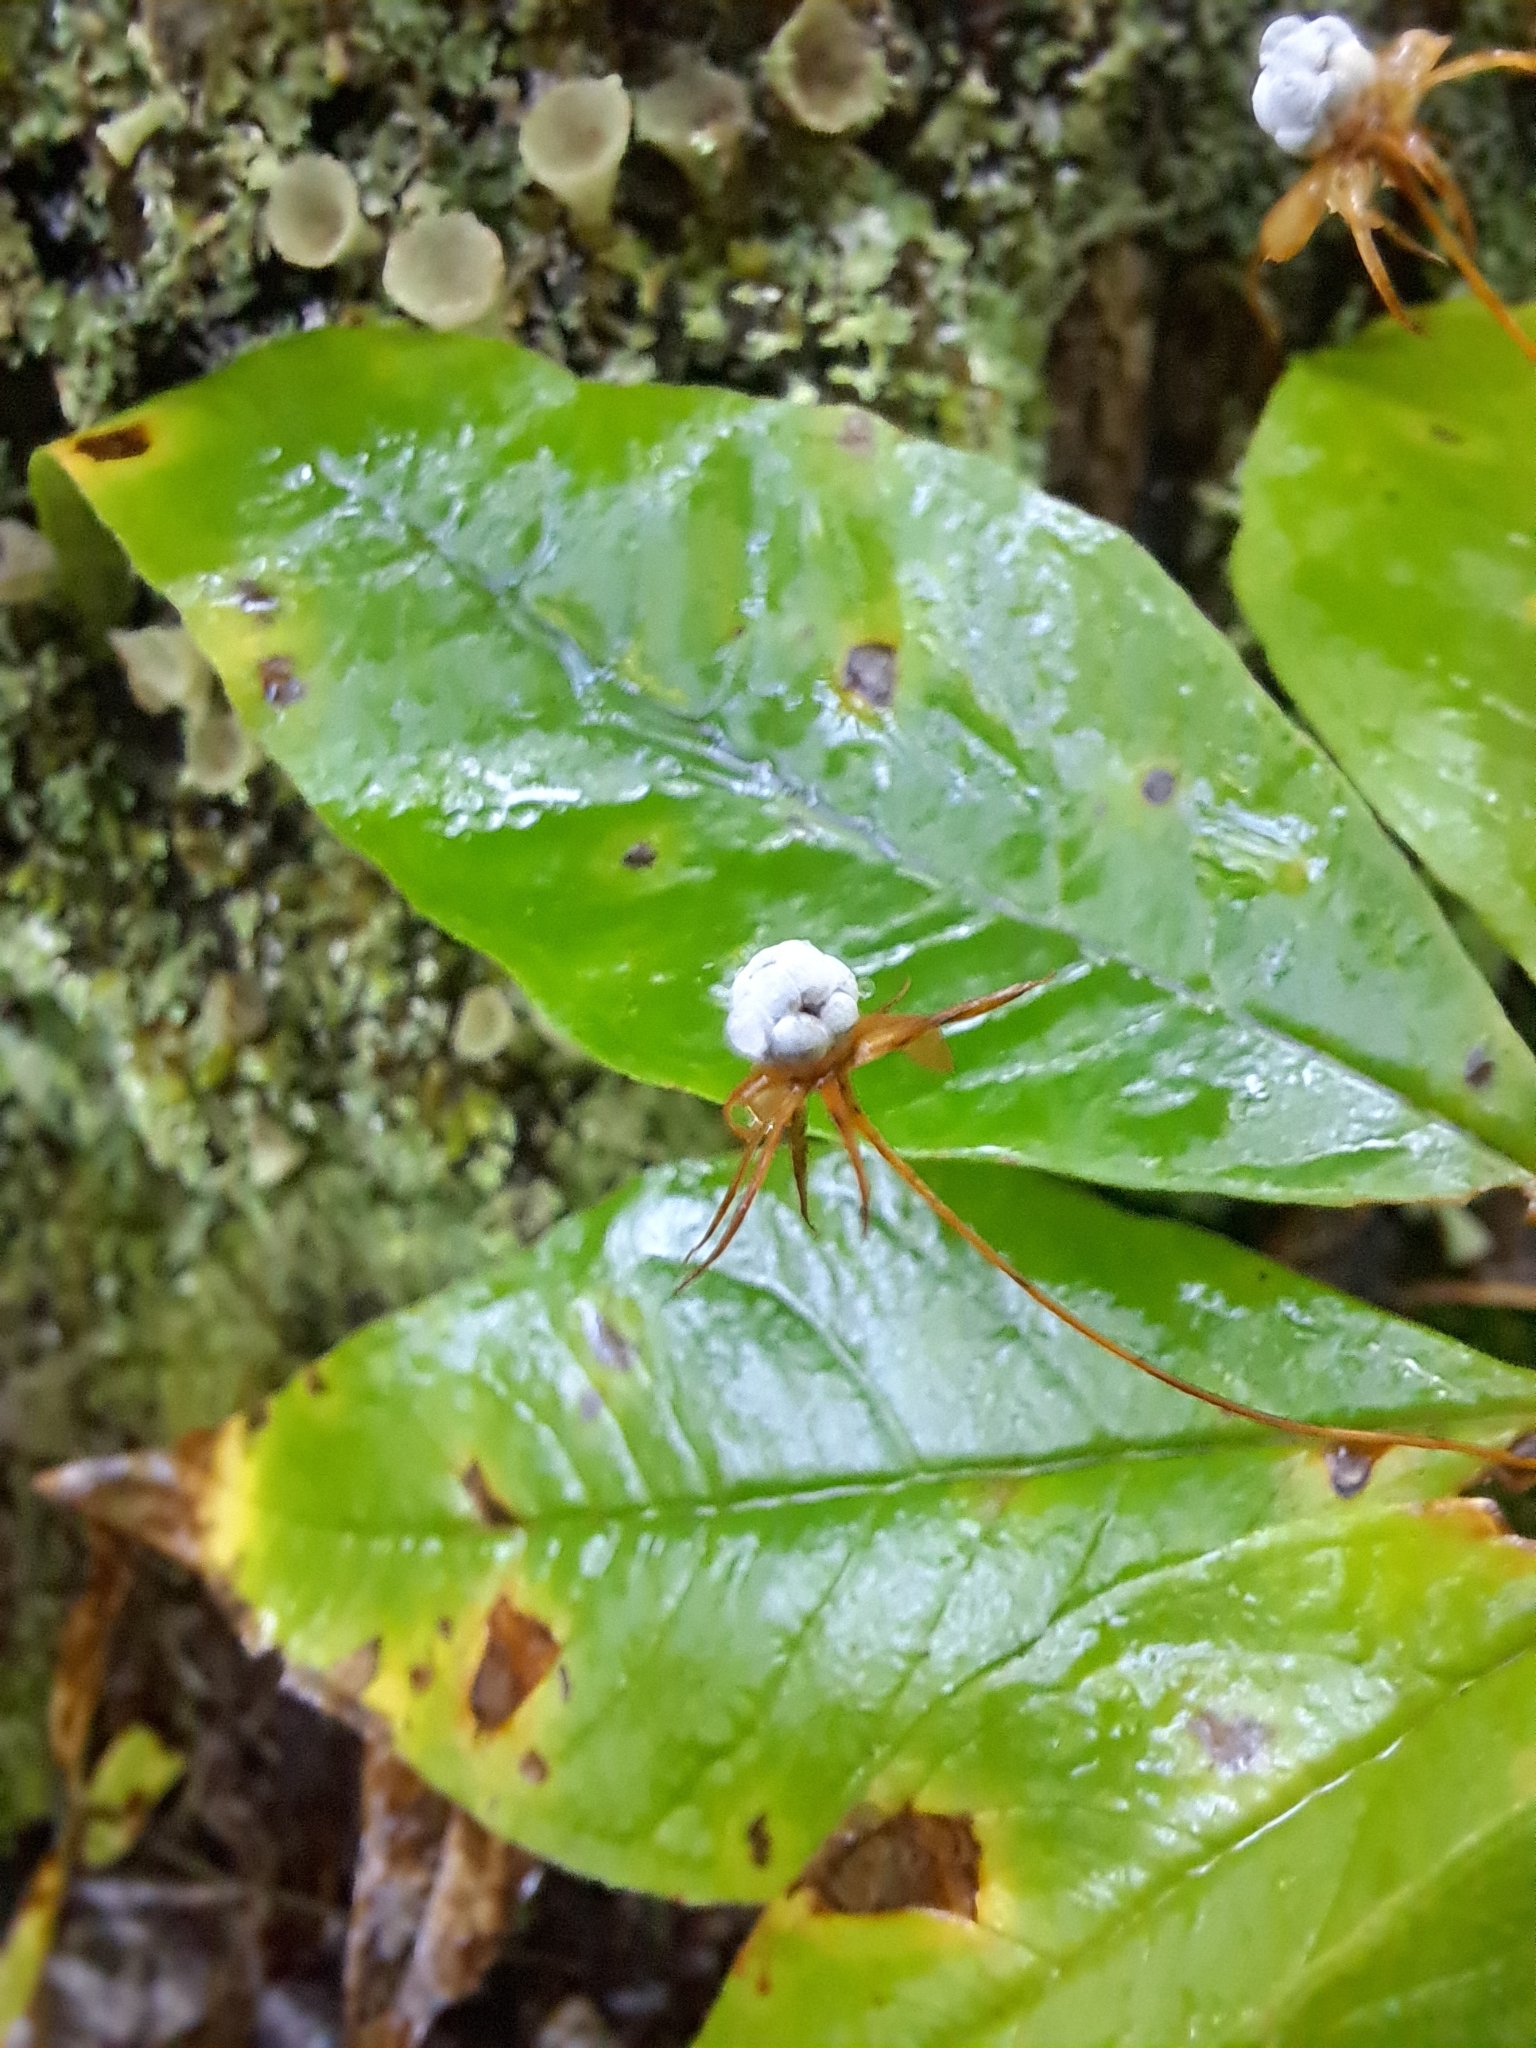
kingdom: Plantae
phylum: Tracheophyta
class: Magnoliopsida
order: Ericales
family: Primulaceae
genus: Lysimachia
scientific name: Lysimachia borealis
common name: American starflower
